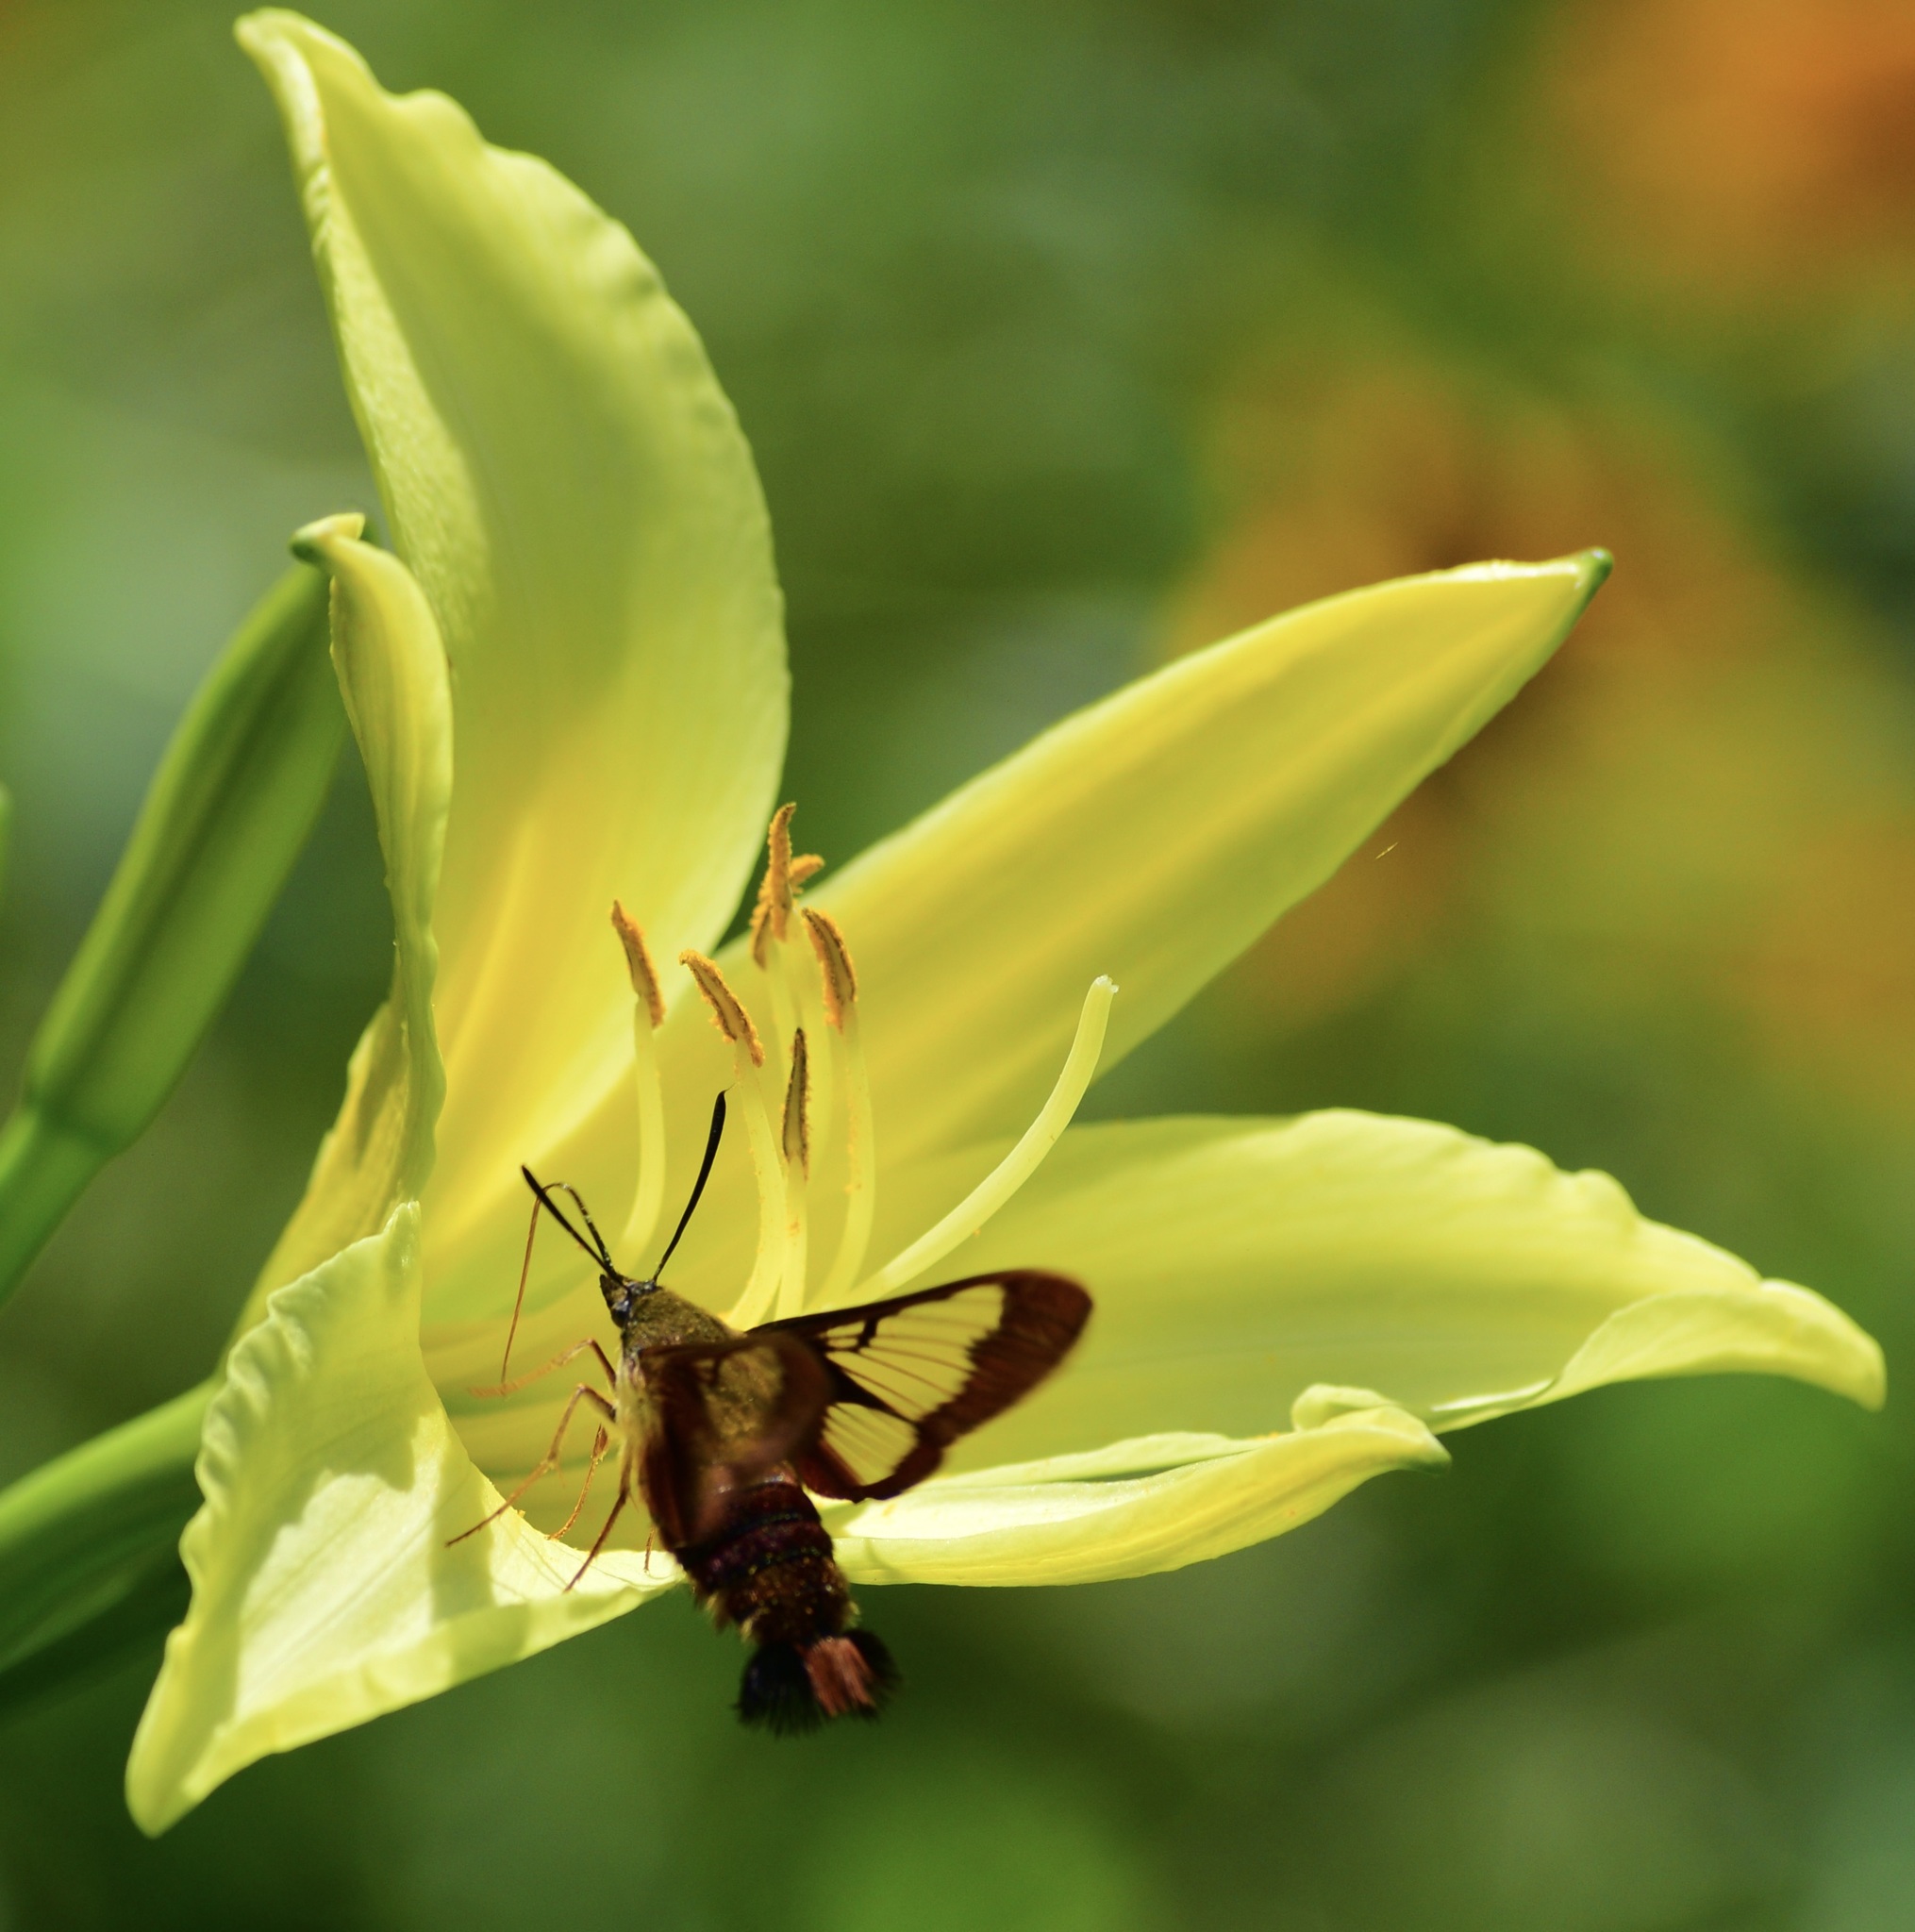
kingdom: Animalia
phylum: Arthropoda
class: Insecta
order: Lepidoptera
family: Sphingidae
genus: Hemaris
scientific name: Hemaris thysbe
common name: Common clear-wing
